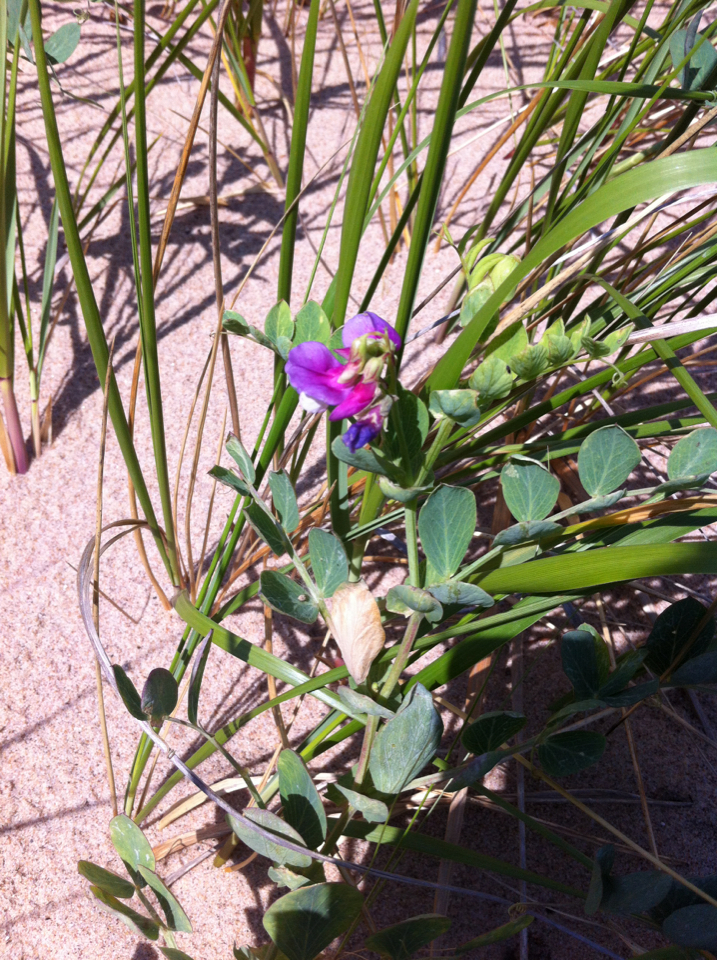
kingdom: Plantae
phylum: Tracheophyta
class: Magnoliopsida
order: Fabales
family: Fabaceae
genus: Lathyrus
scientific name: Lathyrus japonicus
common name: Sea pea
